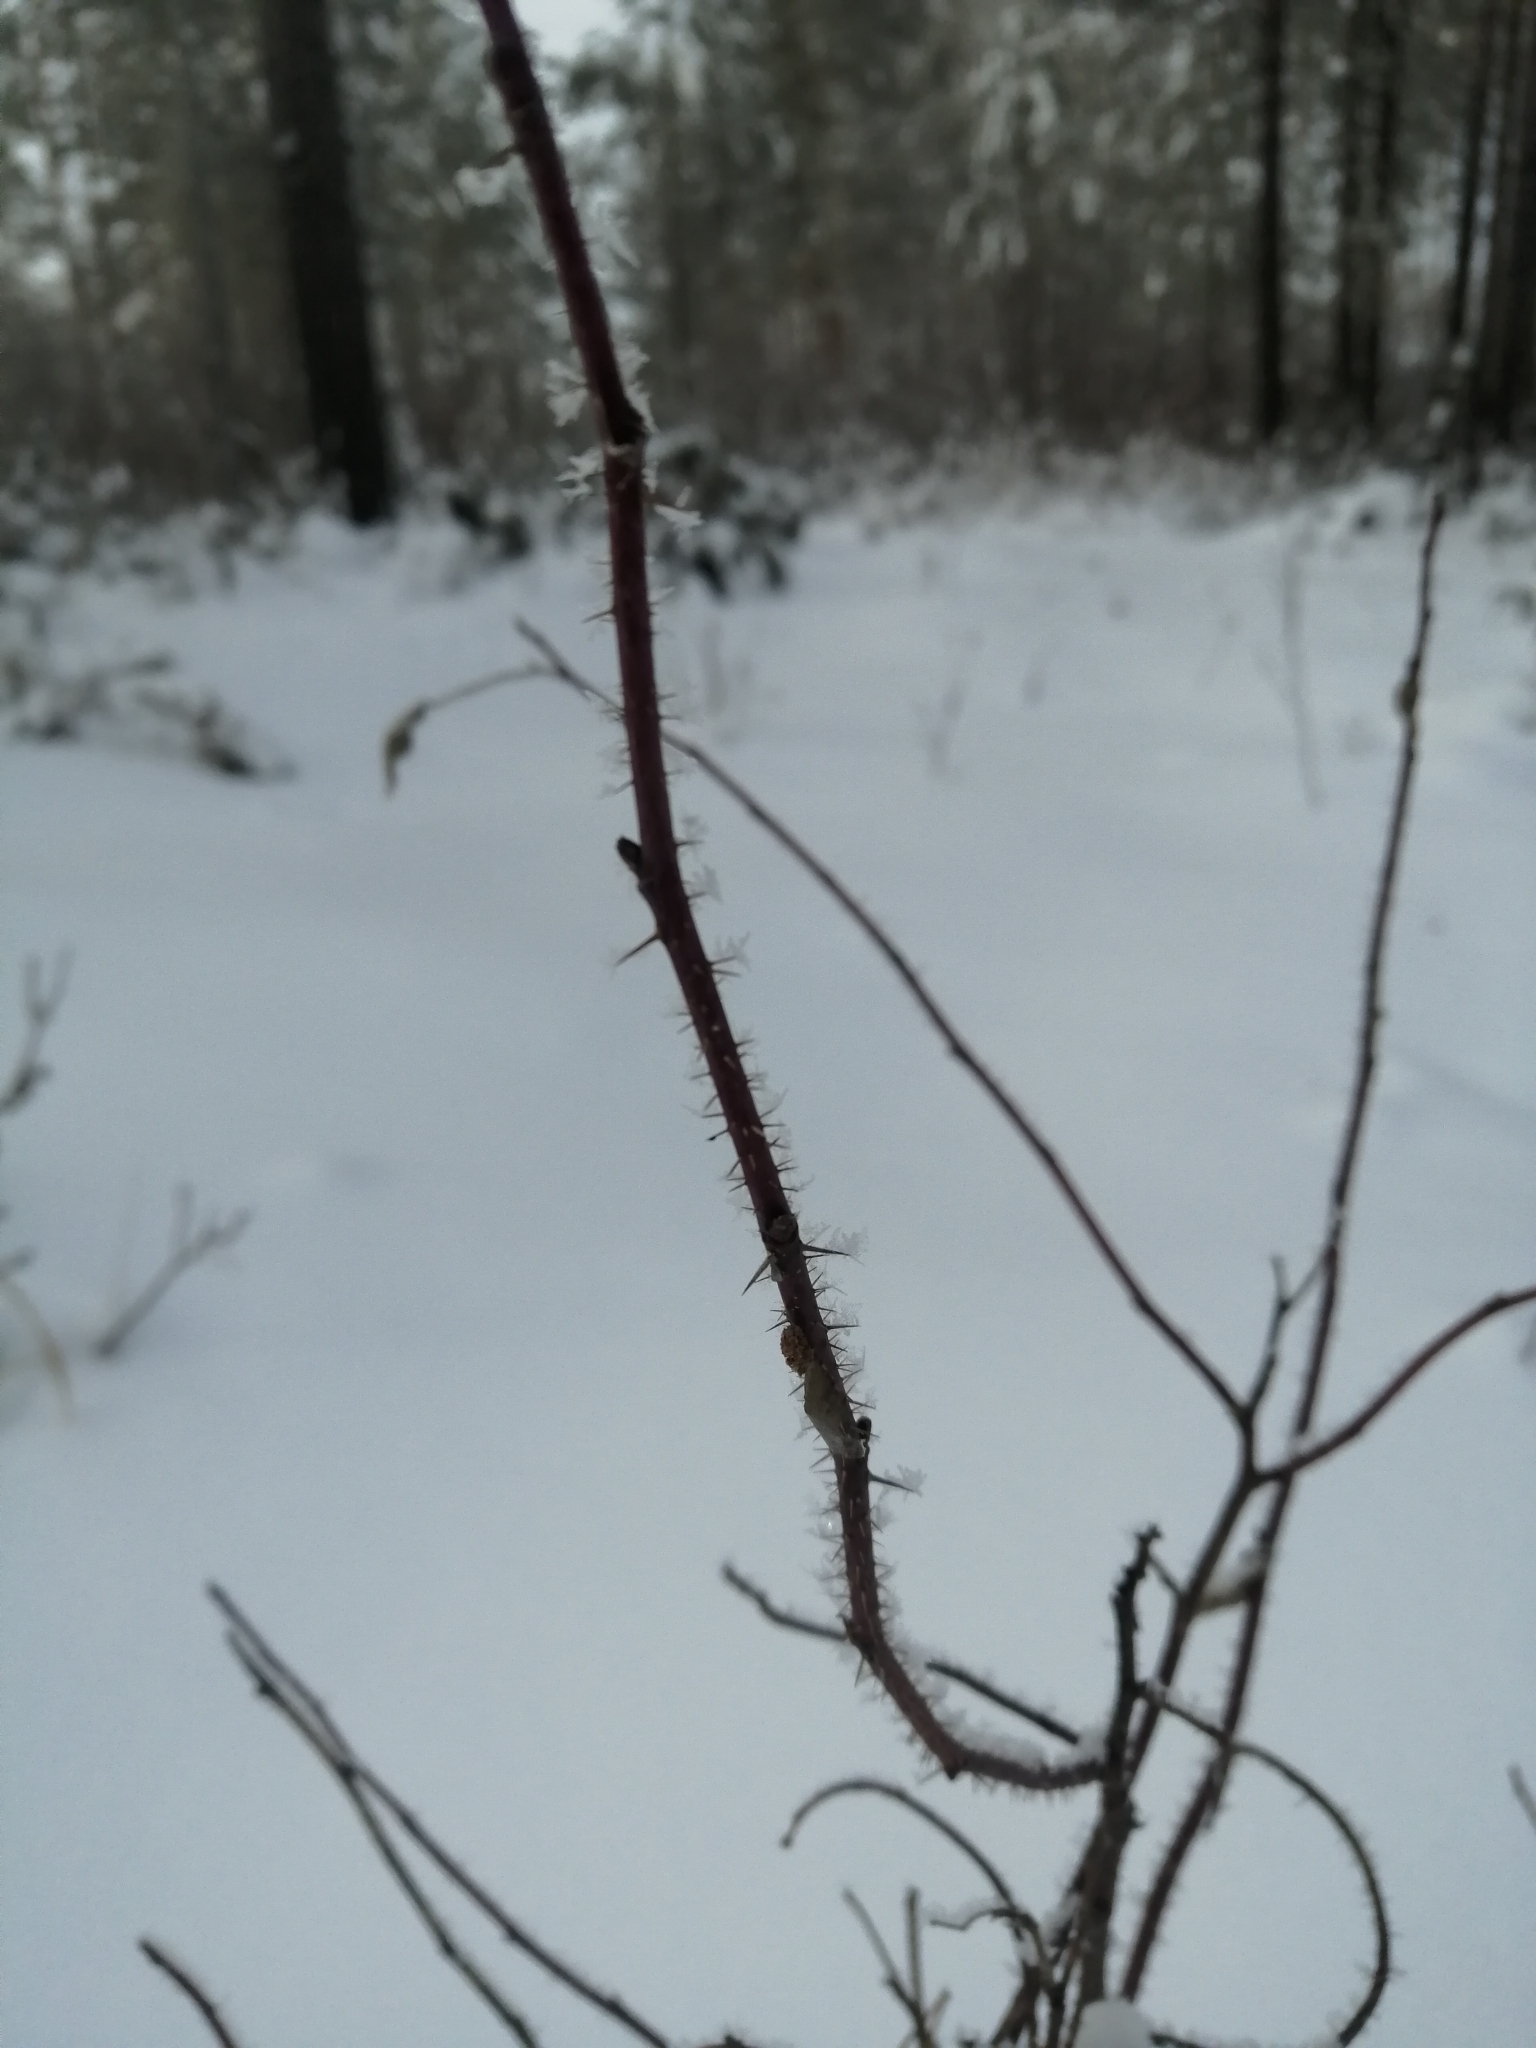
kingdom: Plantae
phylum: Tracheophyta
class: Magnoliopsida
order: Rosales
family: Rosaceae
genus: Rosa
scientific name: Rosa acicularis
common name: Prickly rose
